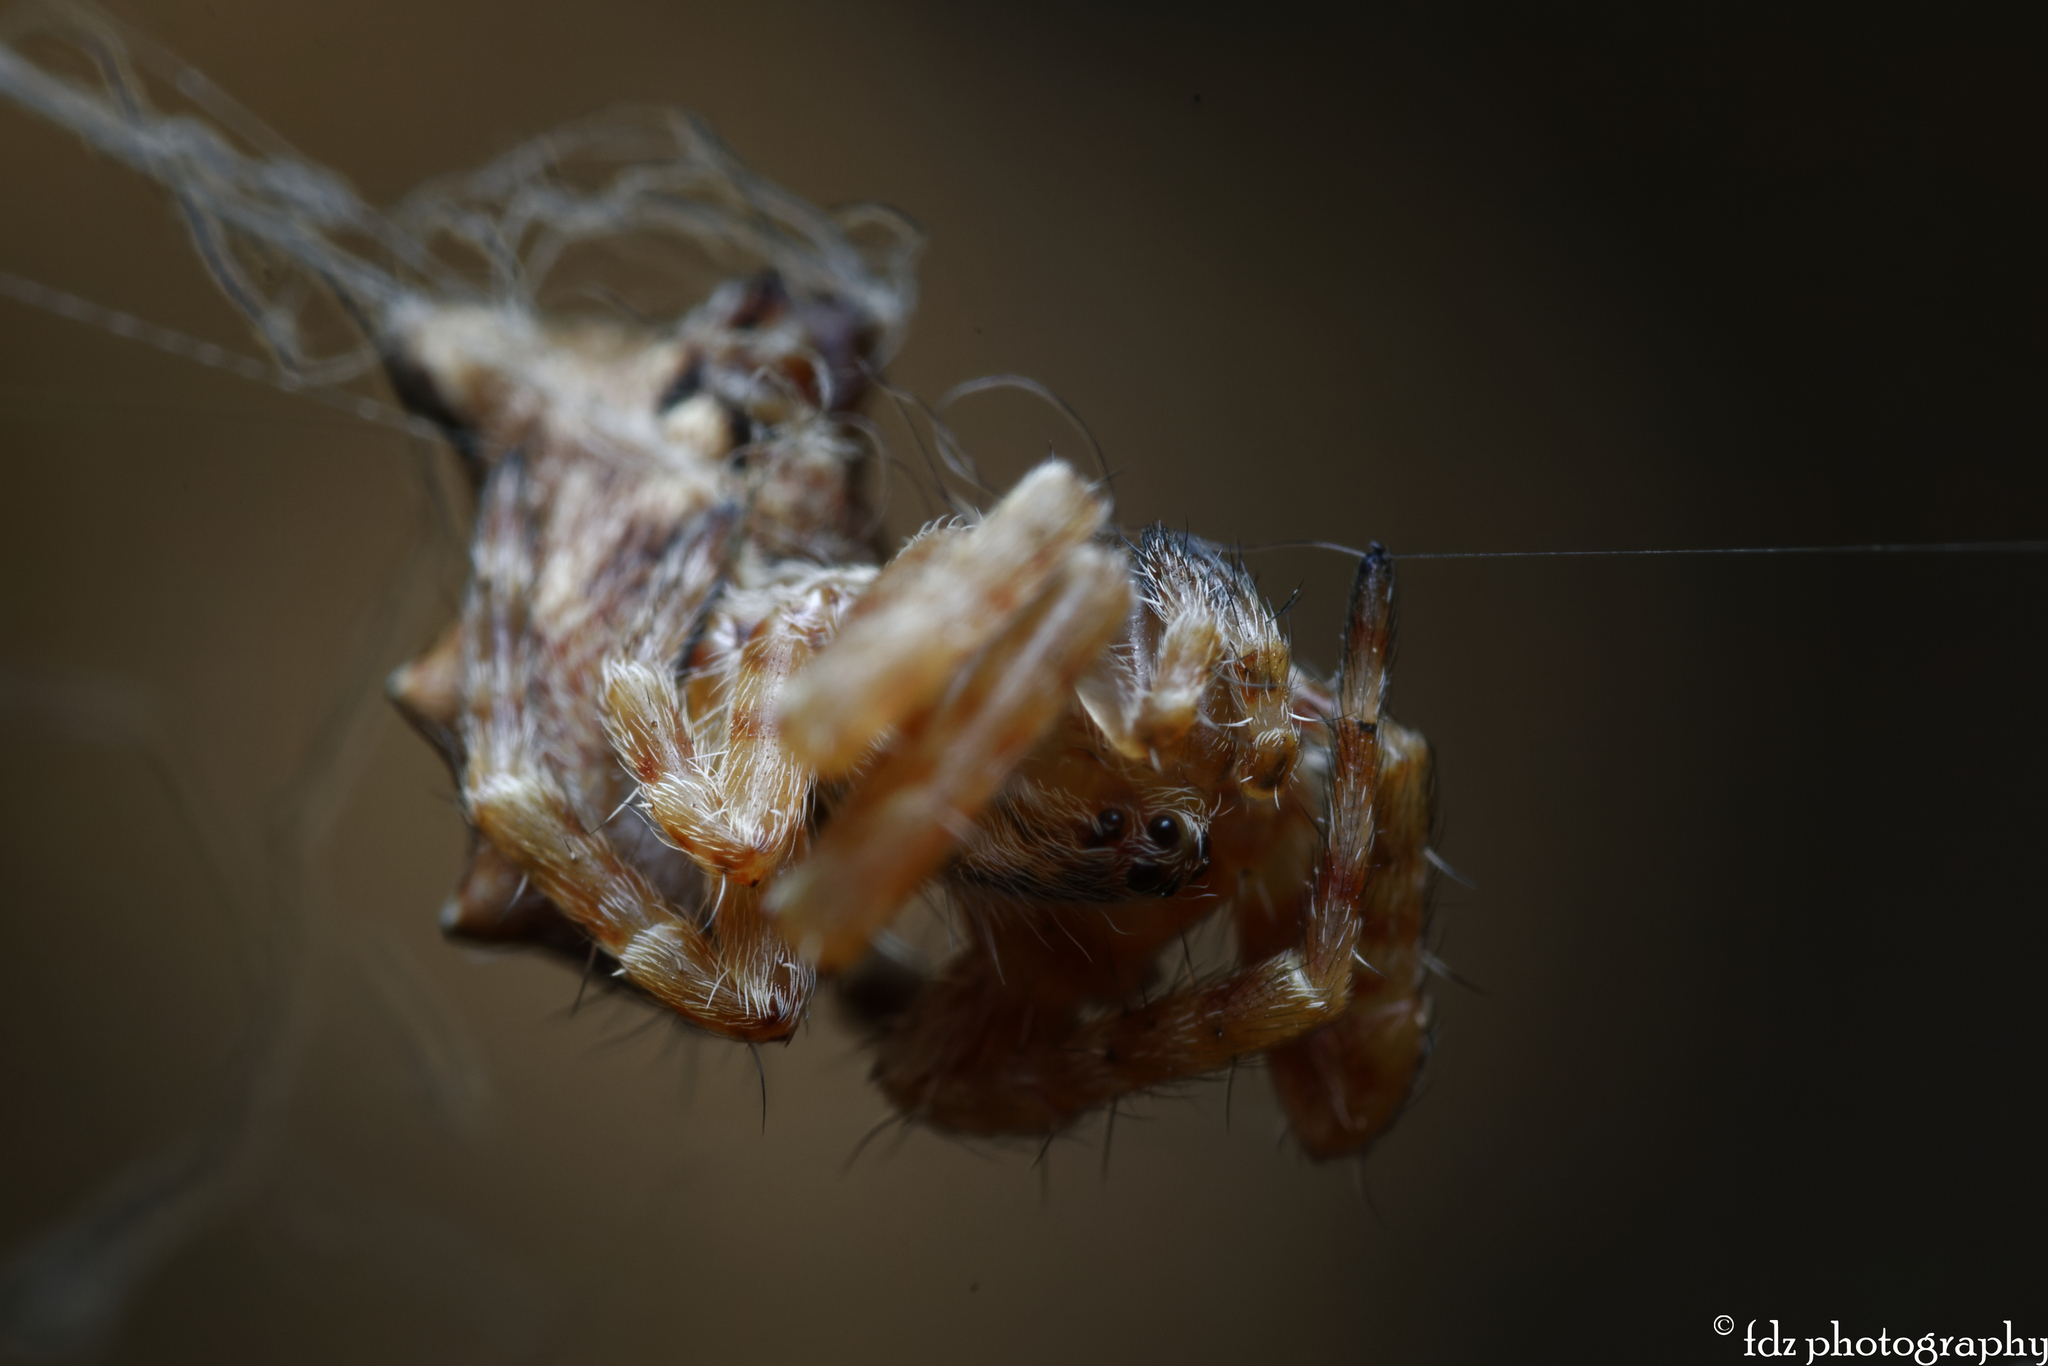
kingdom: Animalia
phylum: Arthropoda
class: Arachnida
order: Araneae
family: Araneidae
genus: Cyrtophora
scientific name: Cyrtophora citricola
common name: Orb weavers
